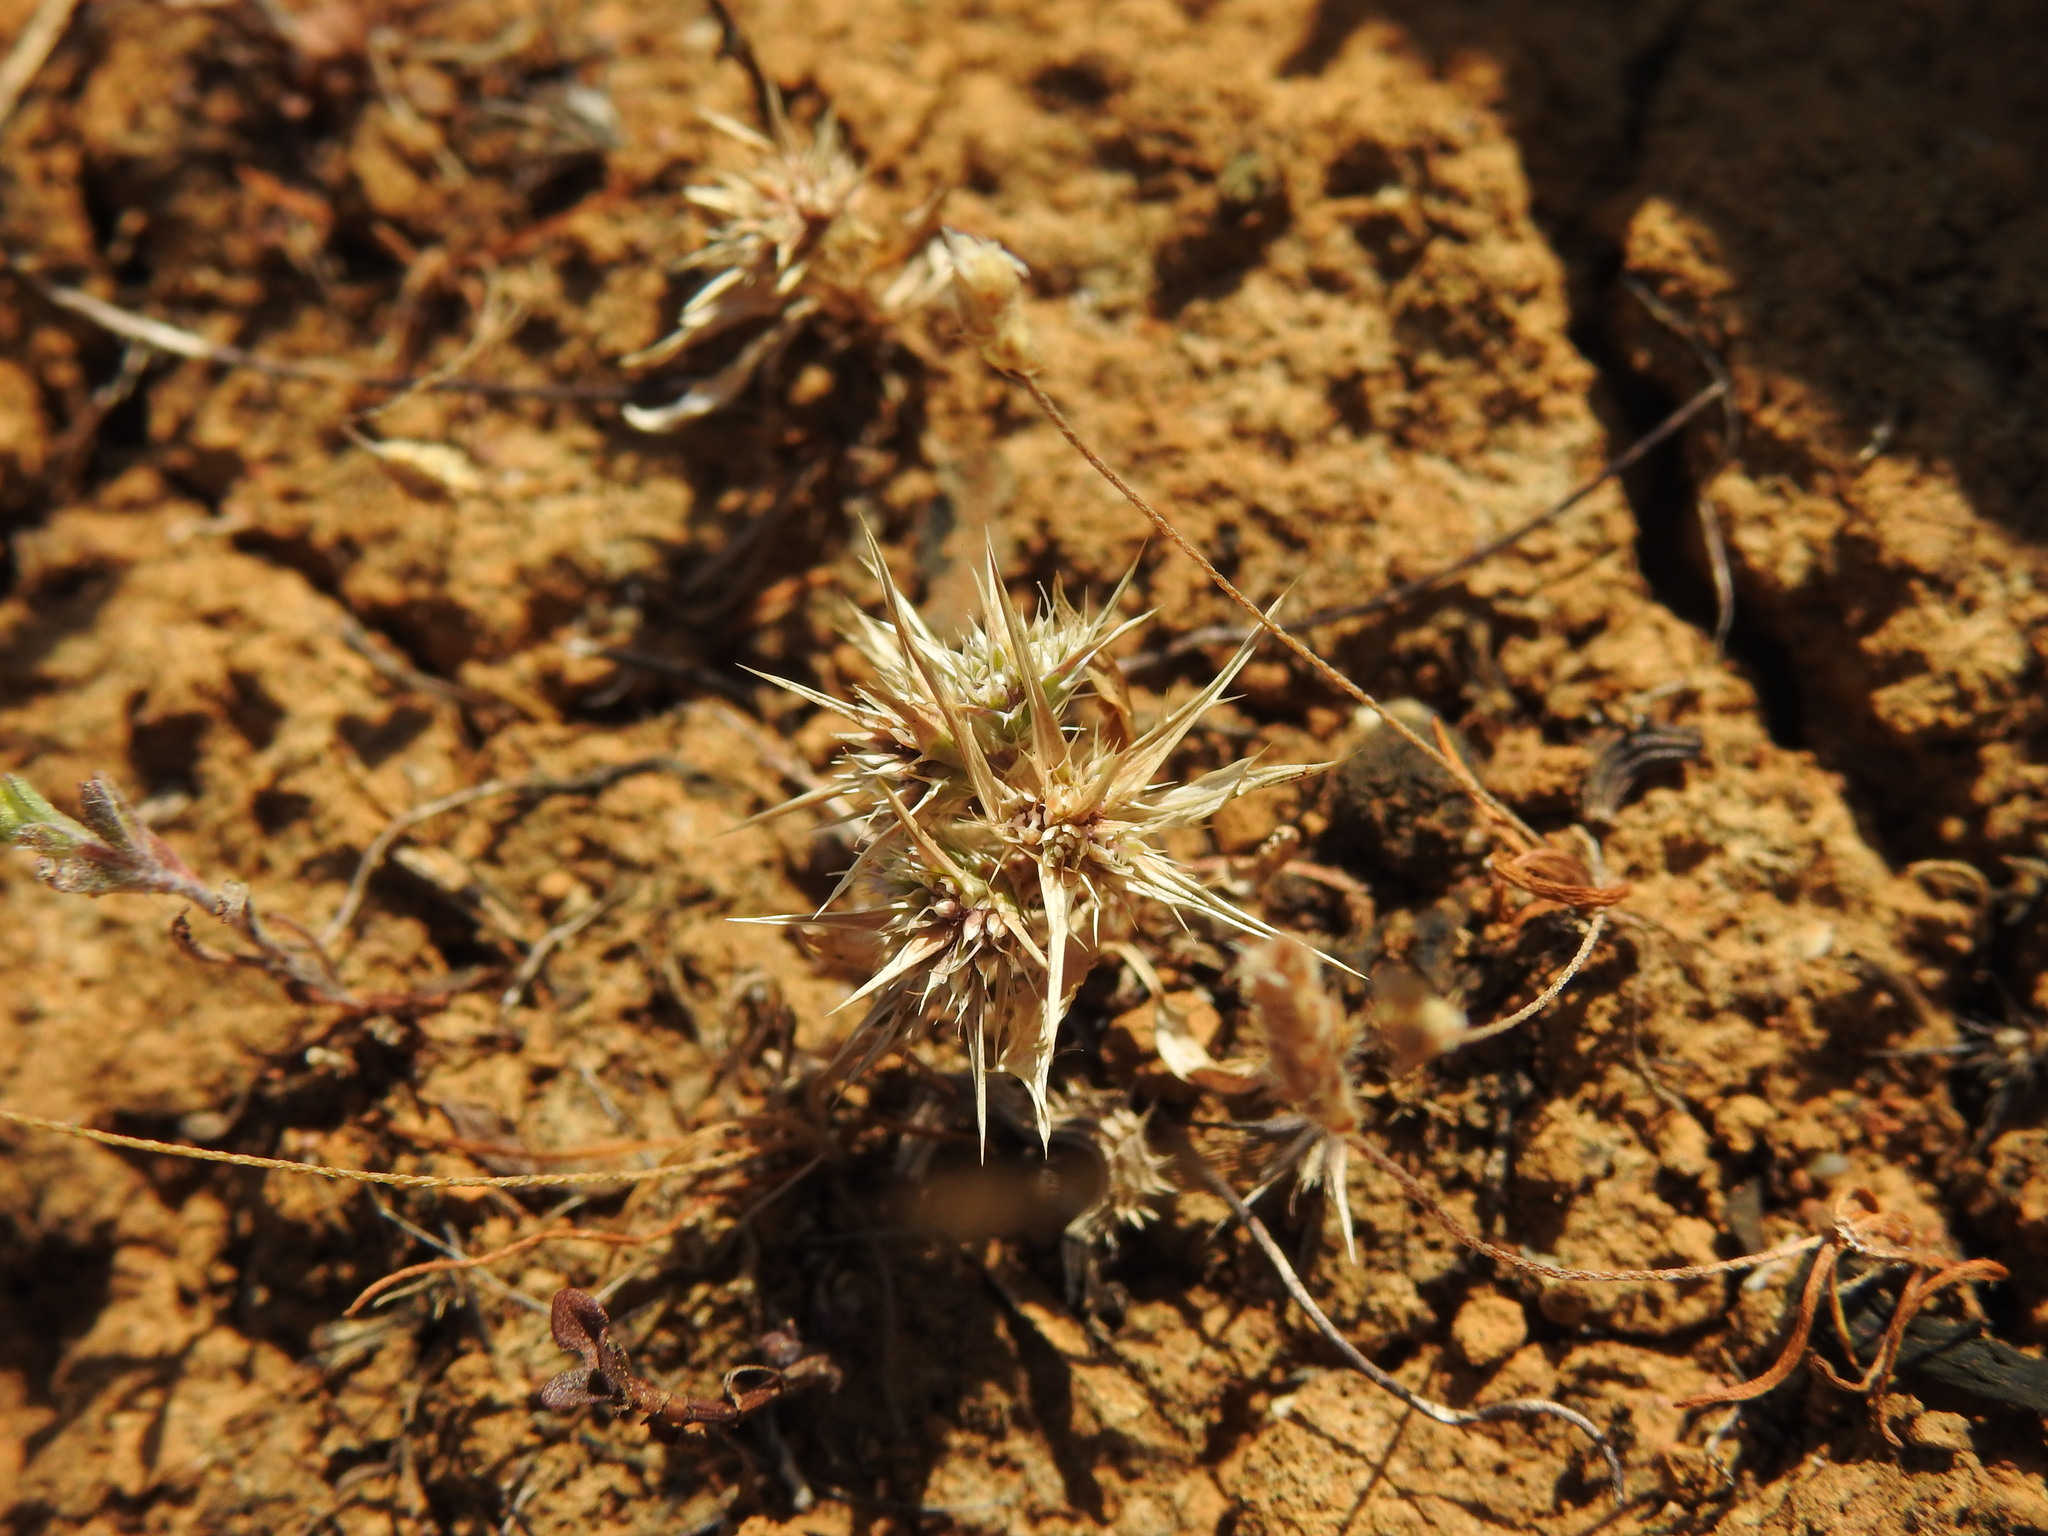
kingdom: Plantae
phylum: Tracheophyta
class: Magnoliopsida
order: Apiales
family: Apiaceae
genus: Eryngium
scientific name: Eryngium galioides
